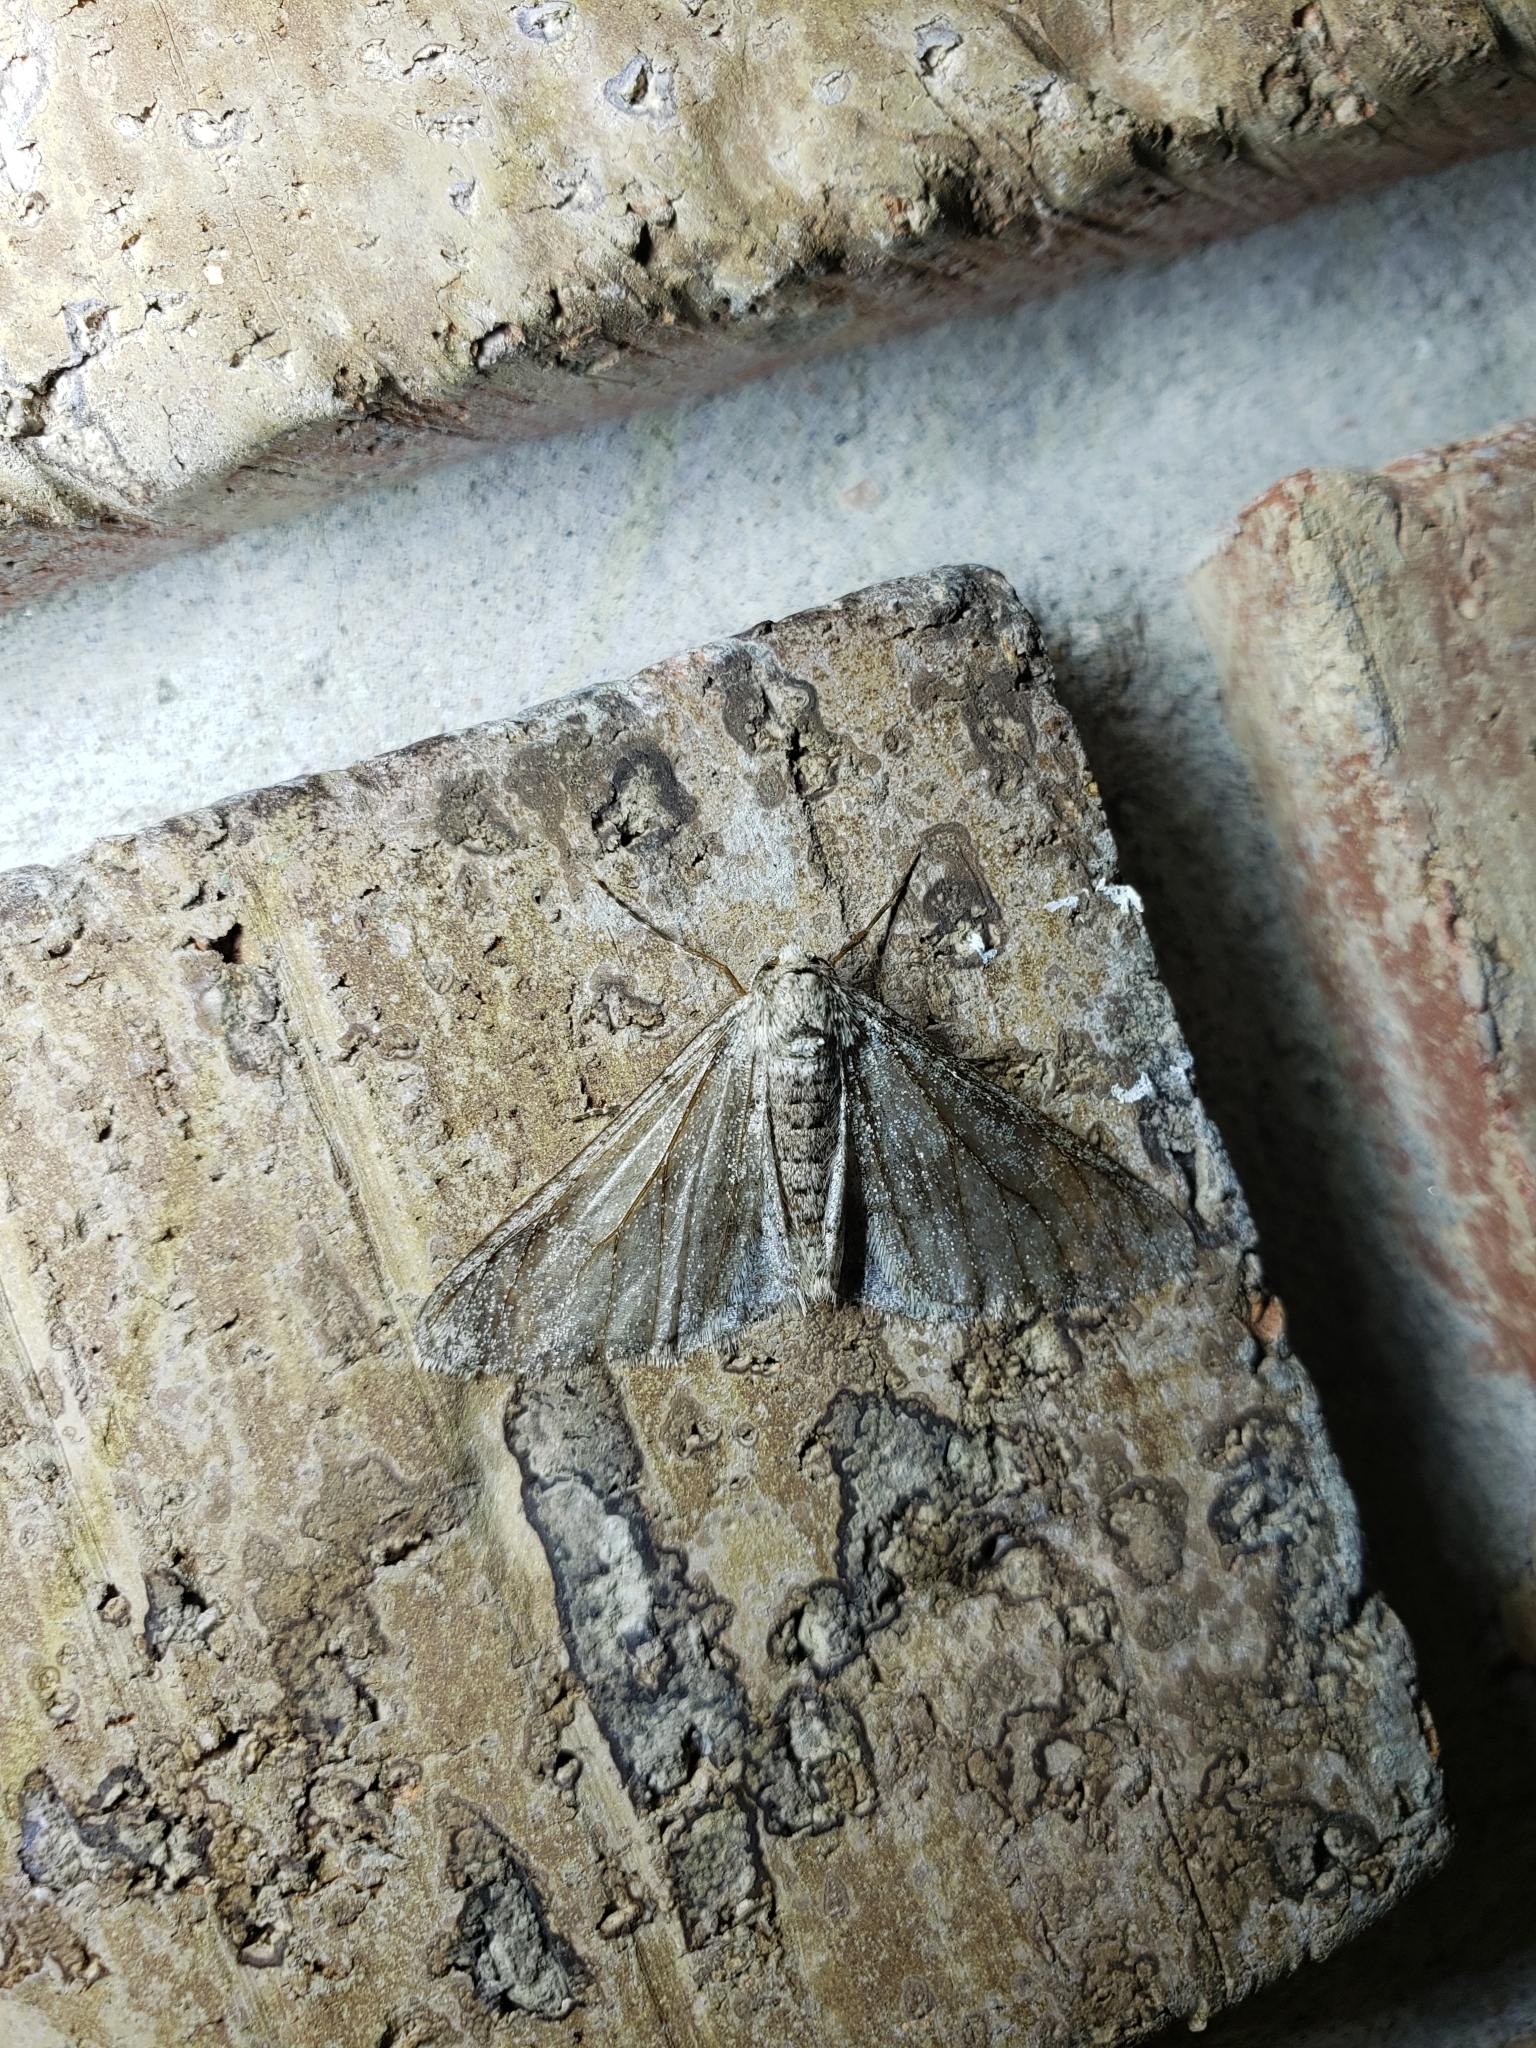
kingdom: Animalia
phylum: Arthropoda
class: Insecta
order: Lepidoptera
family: Geometridae
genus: Phigalia
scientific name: Phigalia titea
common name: Spiny looper
